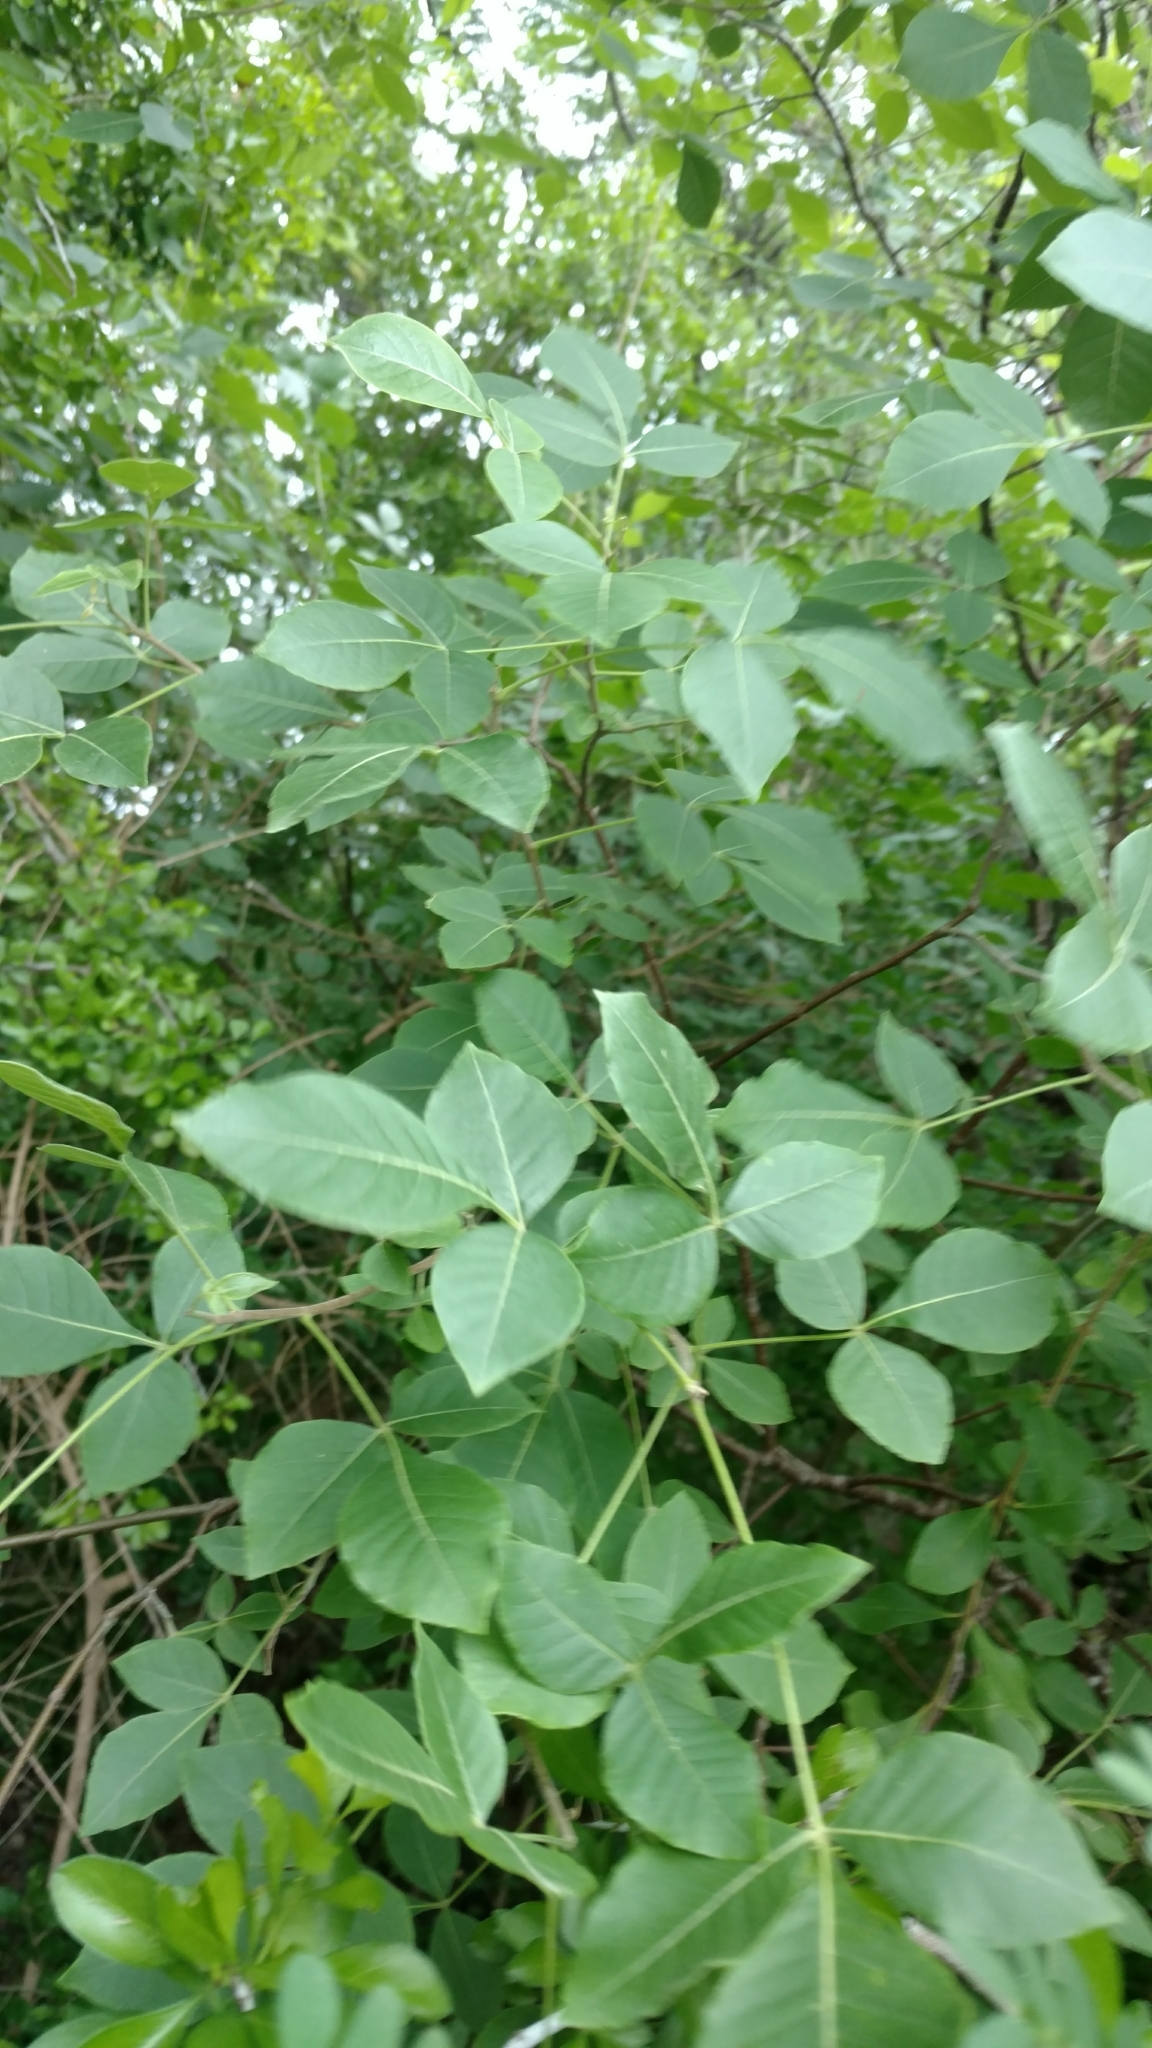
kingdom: Plantae
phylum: Tracheophyta
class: Magnoliopsida
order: Sapindales
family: Rutaceae
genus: Ptelea
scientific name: Ptelea trifoliata
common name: Common hop-tree
